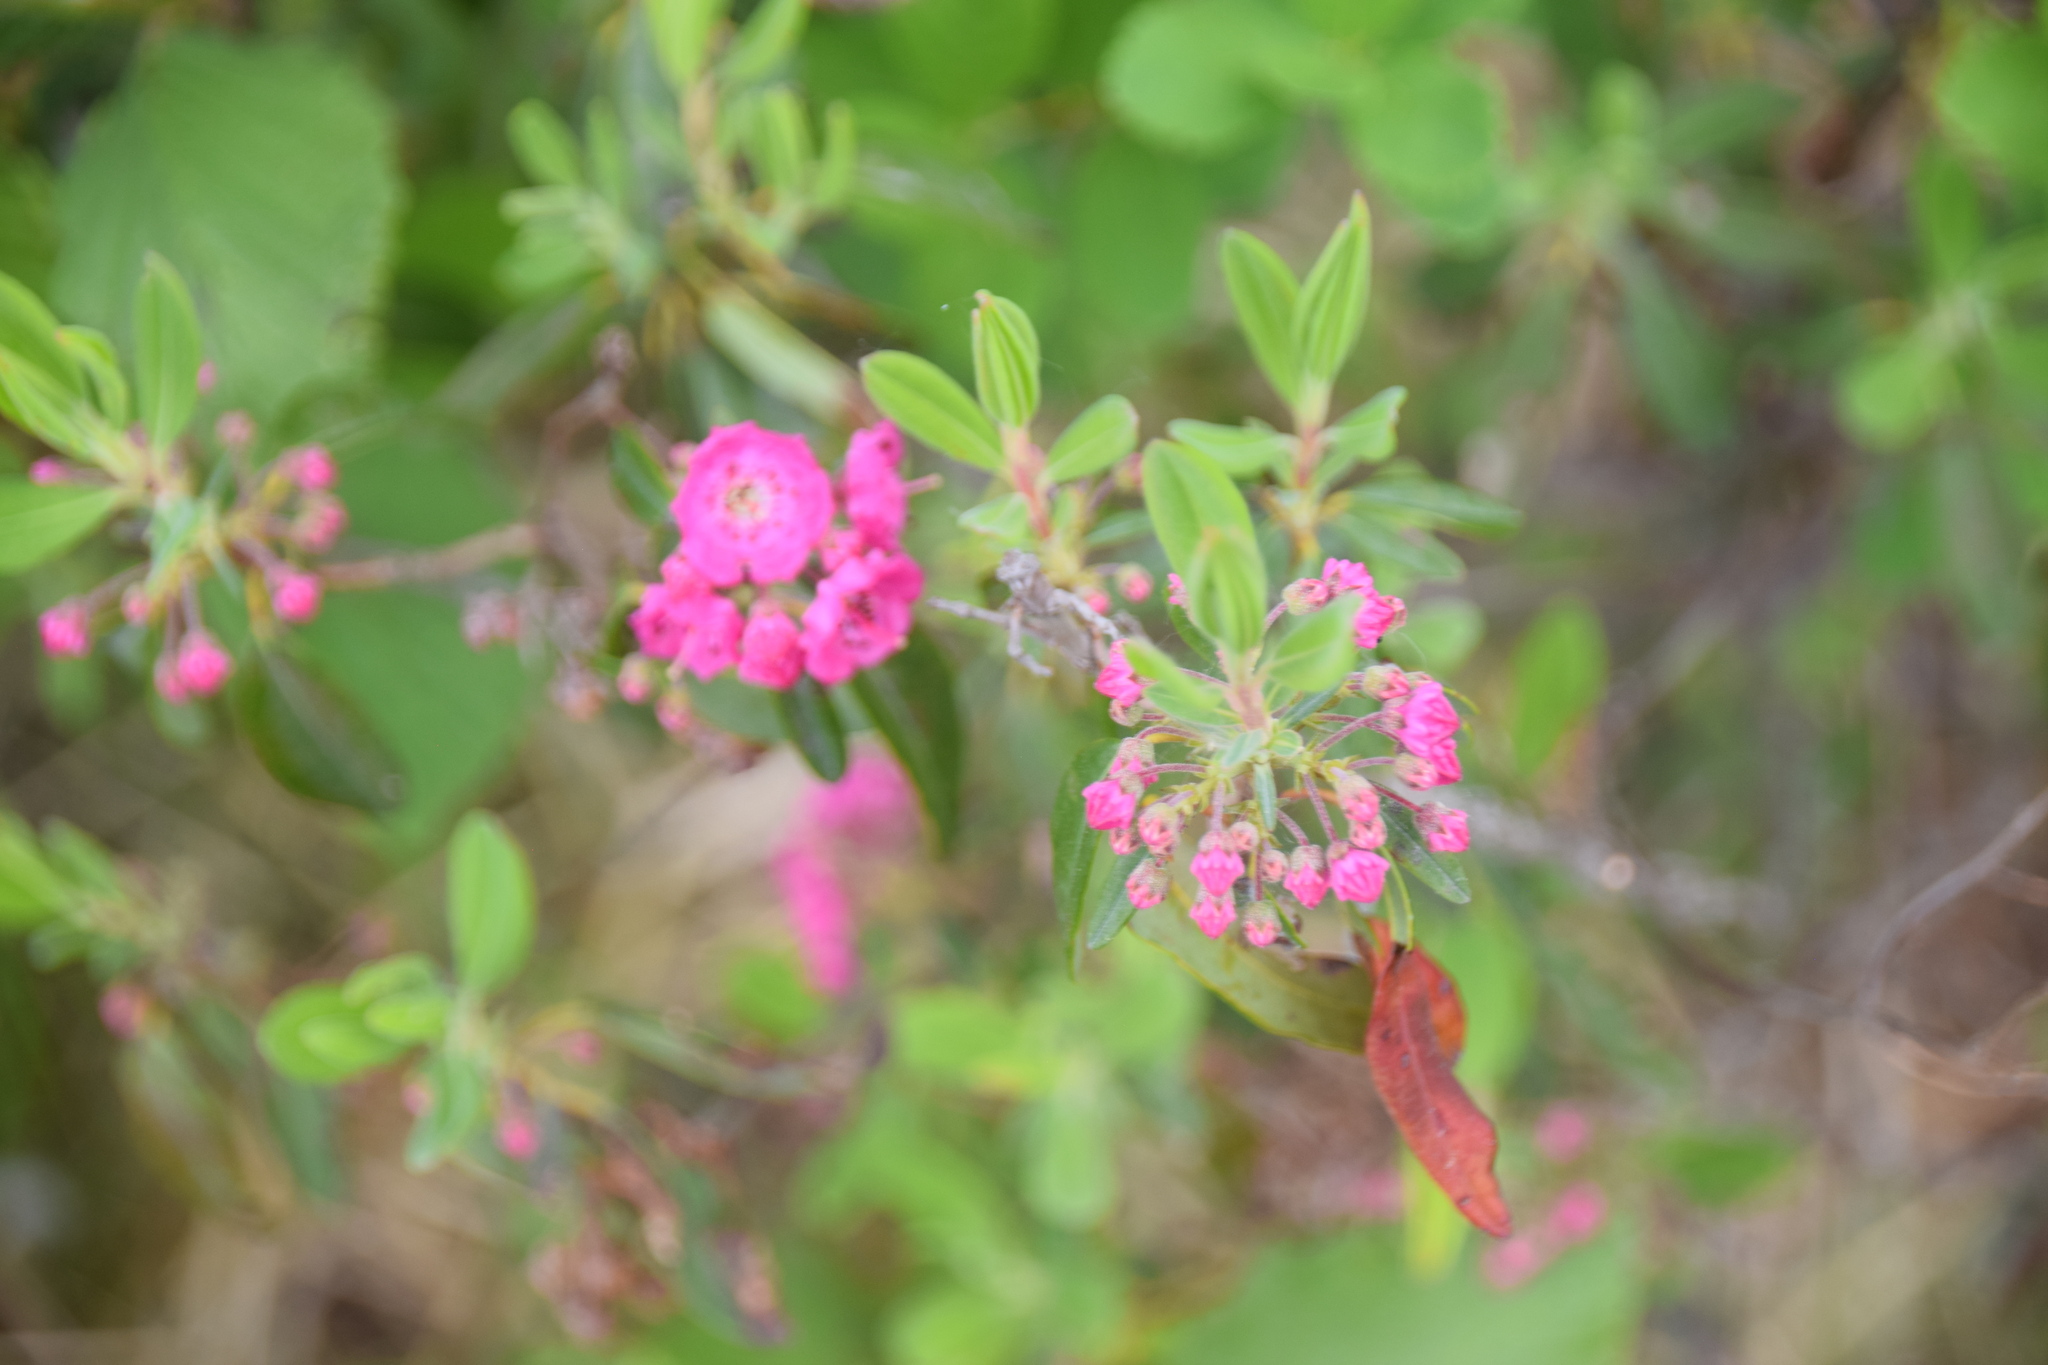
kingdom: Plantae
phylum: Tracheophyta
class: Magnoliopsida
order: Ericales
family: Ericaceae
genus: Kalmia
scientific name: Kalmia angustifolia
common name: Sheep-laurel
